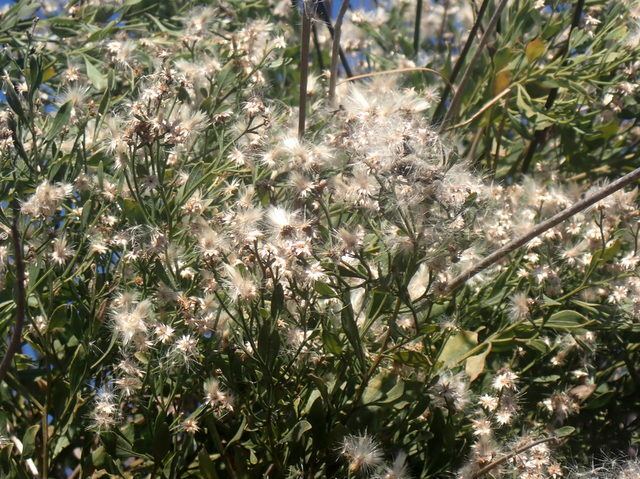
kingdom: Plantae
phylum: Tracheophyta
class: Magnoliopsida
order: Asterales
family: Asteraceae
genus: Baccharis
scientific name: Baccharis halimifolia
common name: Eastern baccharis
